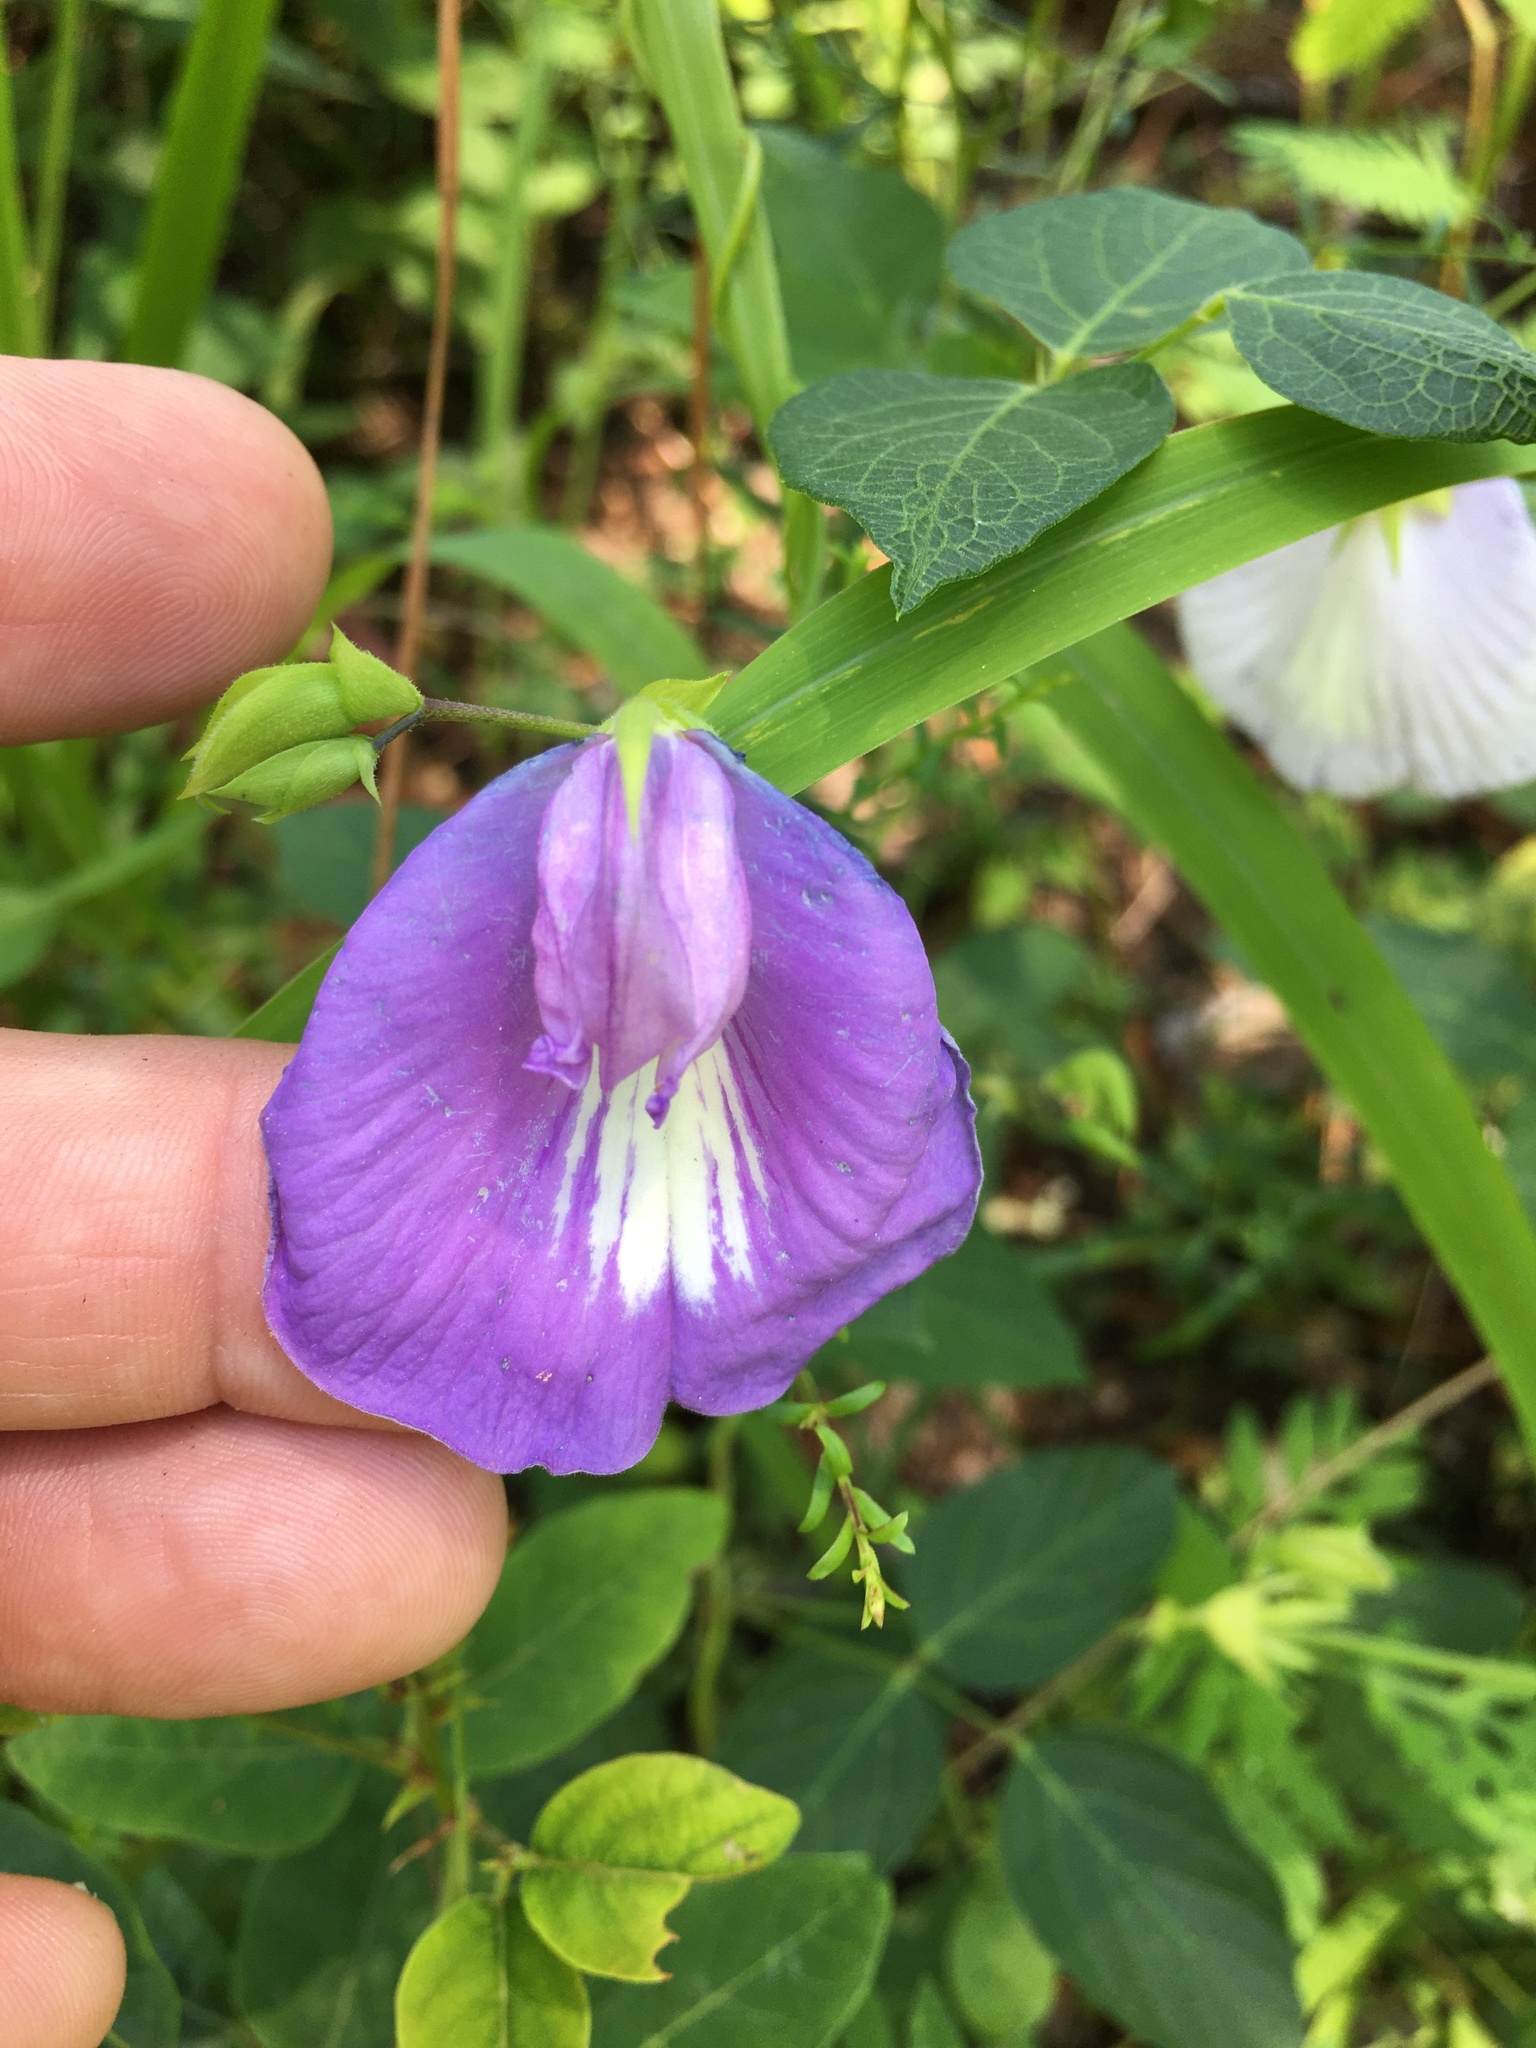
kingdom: Plantae
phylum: Tracheophyta
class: Magnoliopsida
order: Fabales
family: Fabaceae
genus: Centrosema
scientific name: Centrosema virginianum
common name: Butterfly-pea
